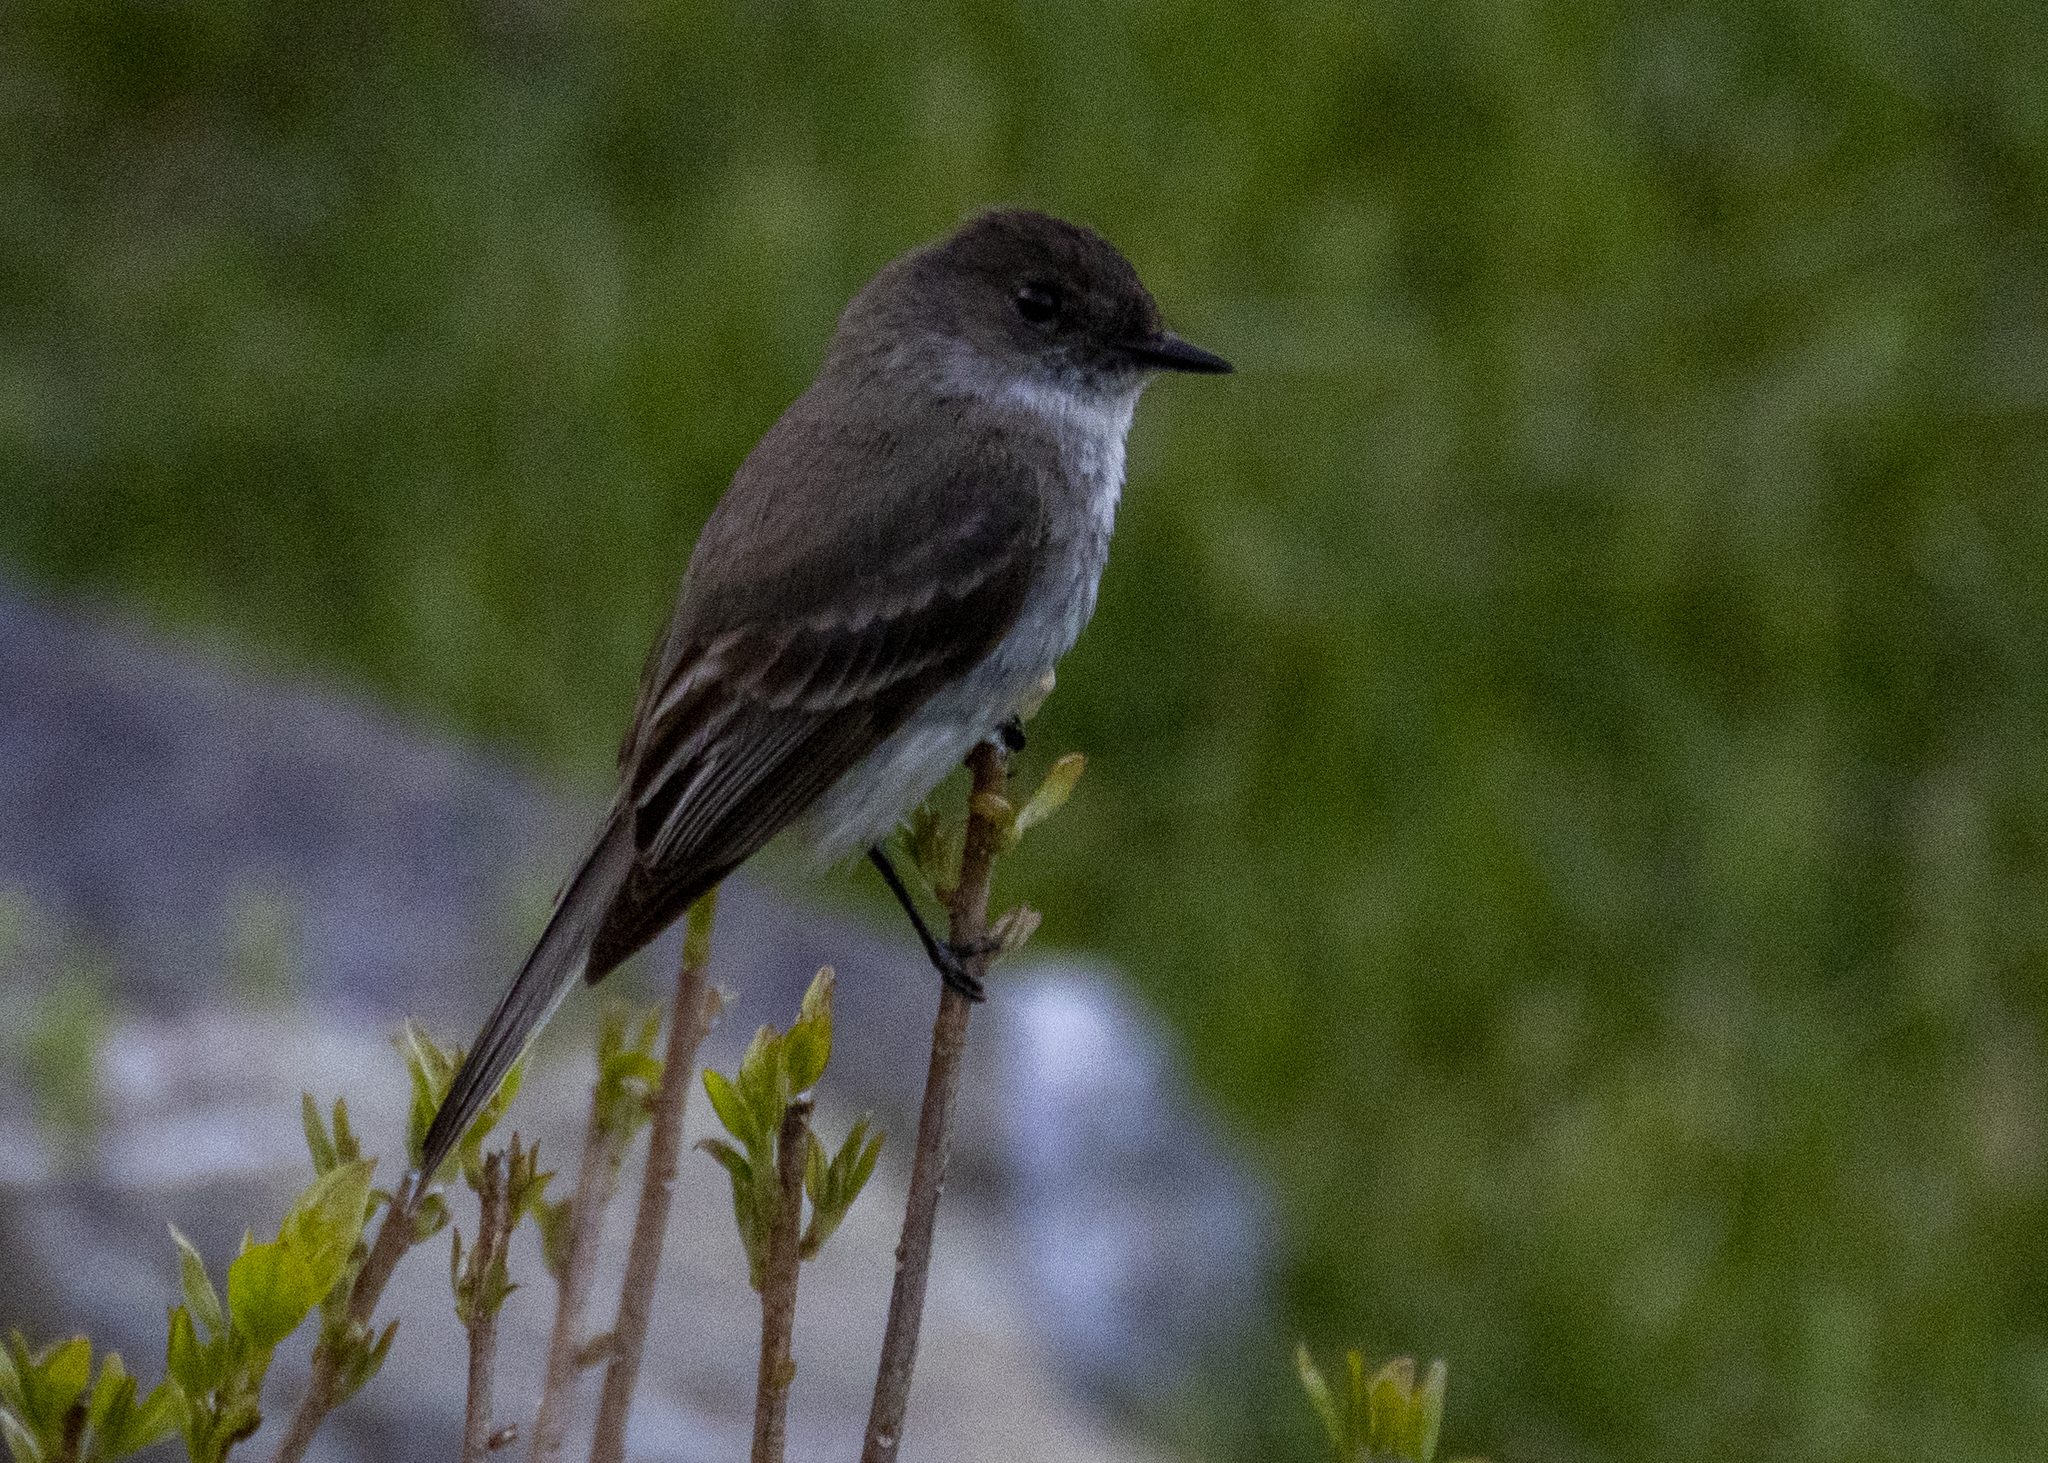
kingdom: Animalia
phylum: Chordata
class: Aves
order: Passeriformes
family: Tyrannidae
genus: Sayornis
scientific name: Sayornis phoebe
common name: Eastern phoebe
